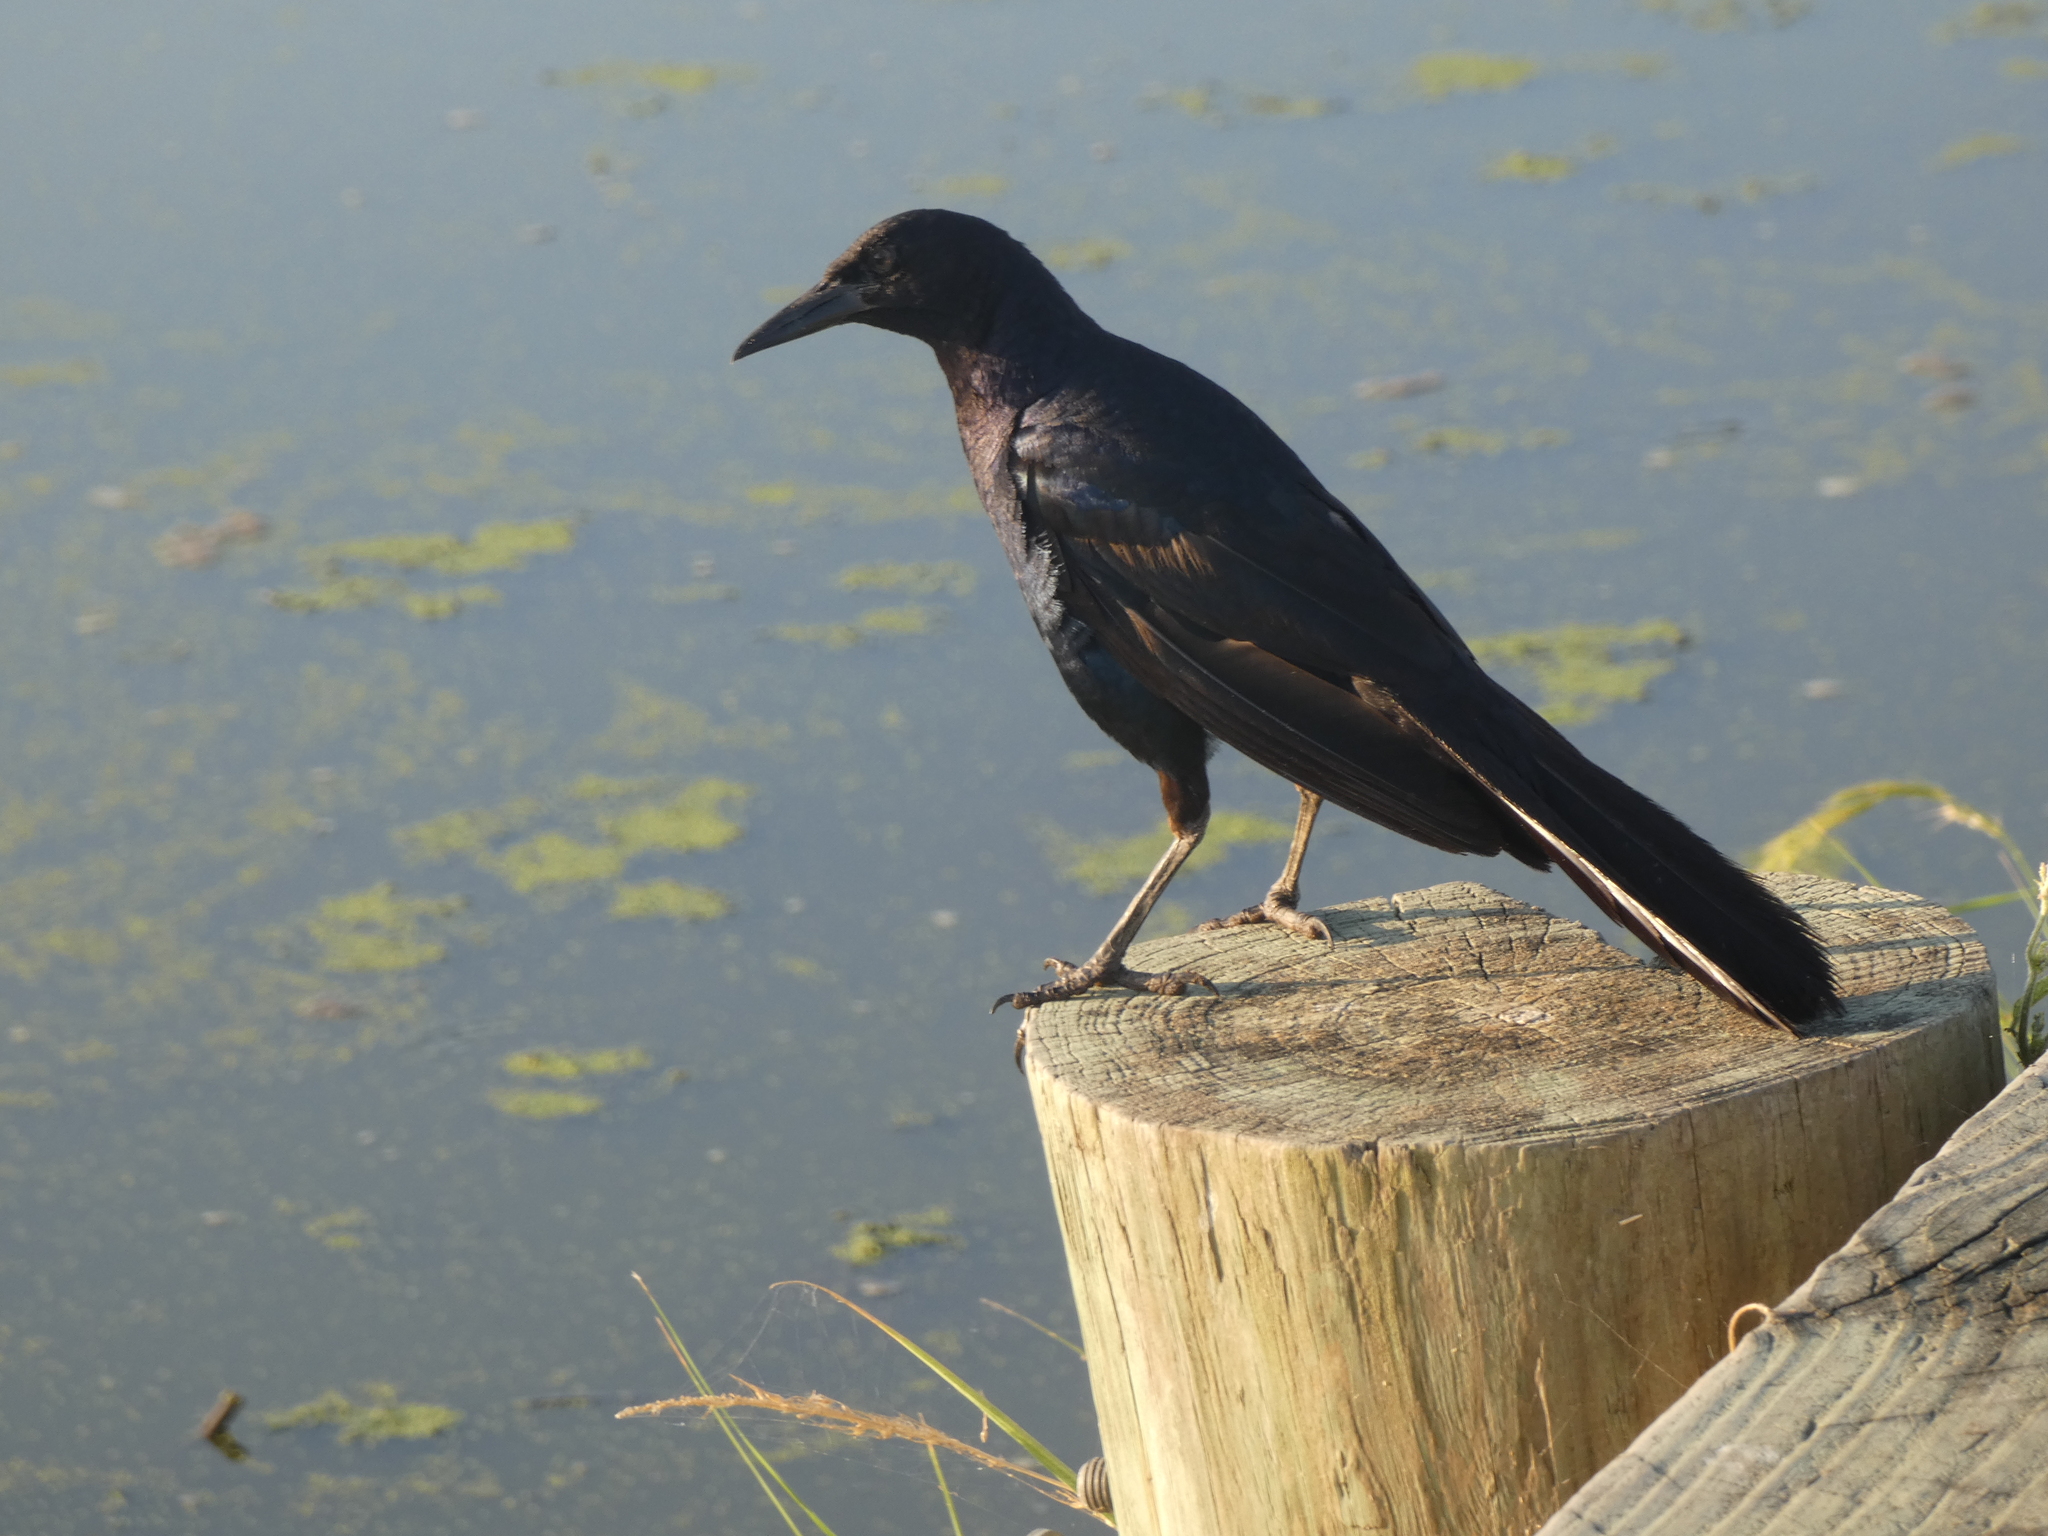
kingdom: Animalia
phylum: Chordata
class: Aves
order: Passeriformes
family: Icteridae
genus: Quiscalus
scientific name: Quiscalus major
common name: Boat-tailed grackle
